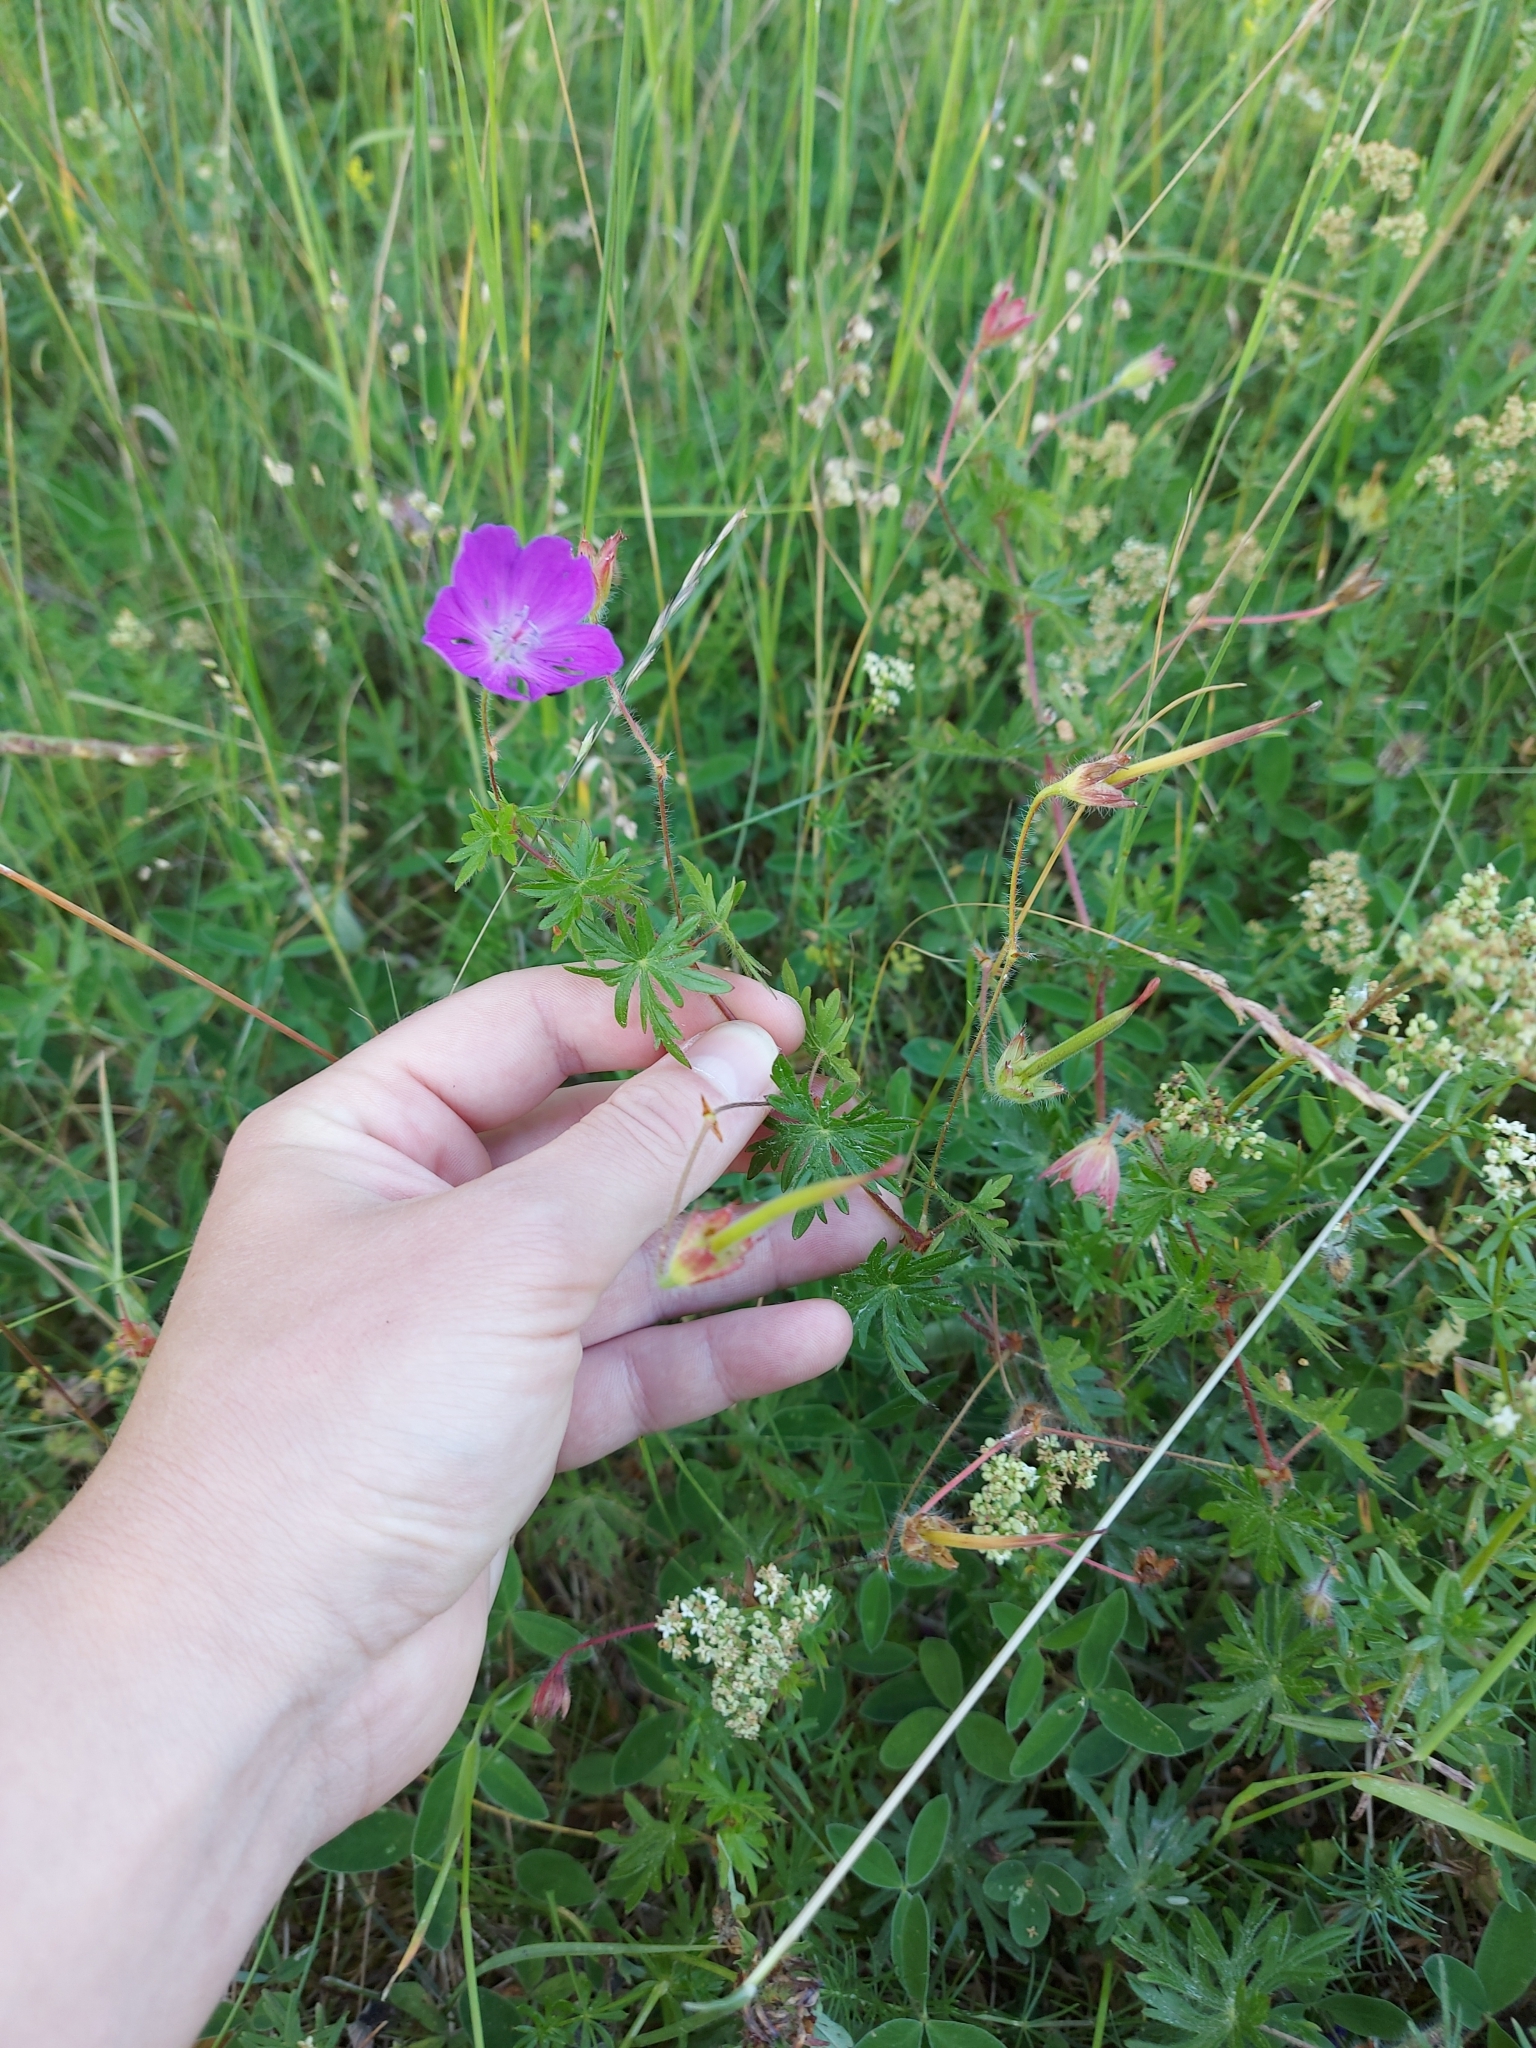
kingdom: Plantae
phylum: Tracheophyta
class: Magnoliopsida
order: Geraniales
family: Geraniaceae
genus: Geranium
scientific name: Geranium sanguineum
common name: Bloody crane's-bill
